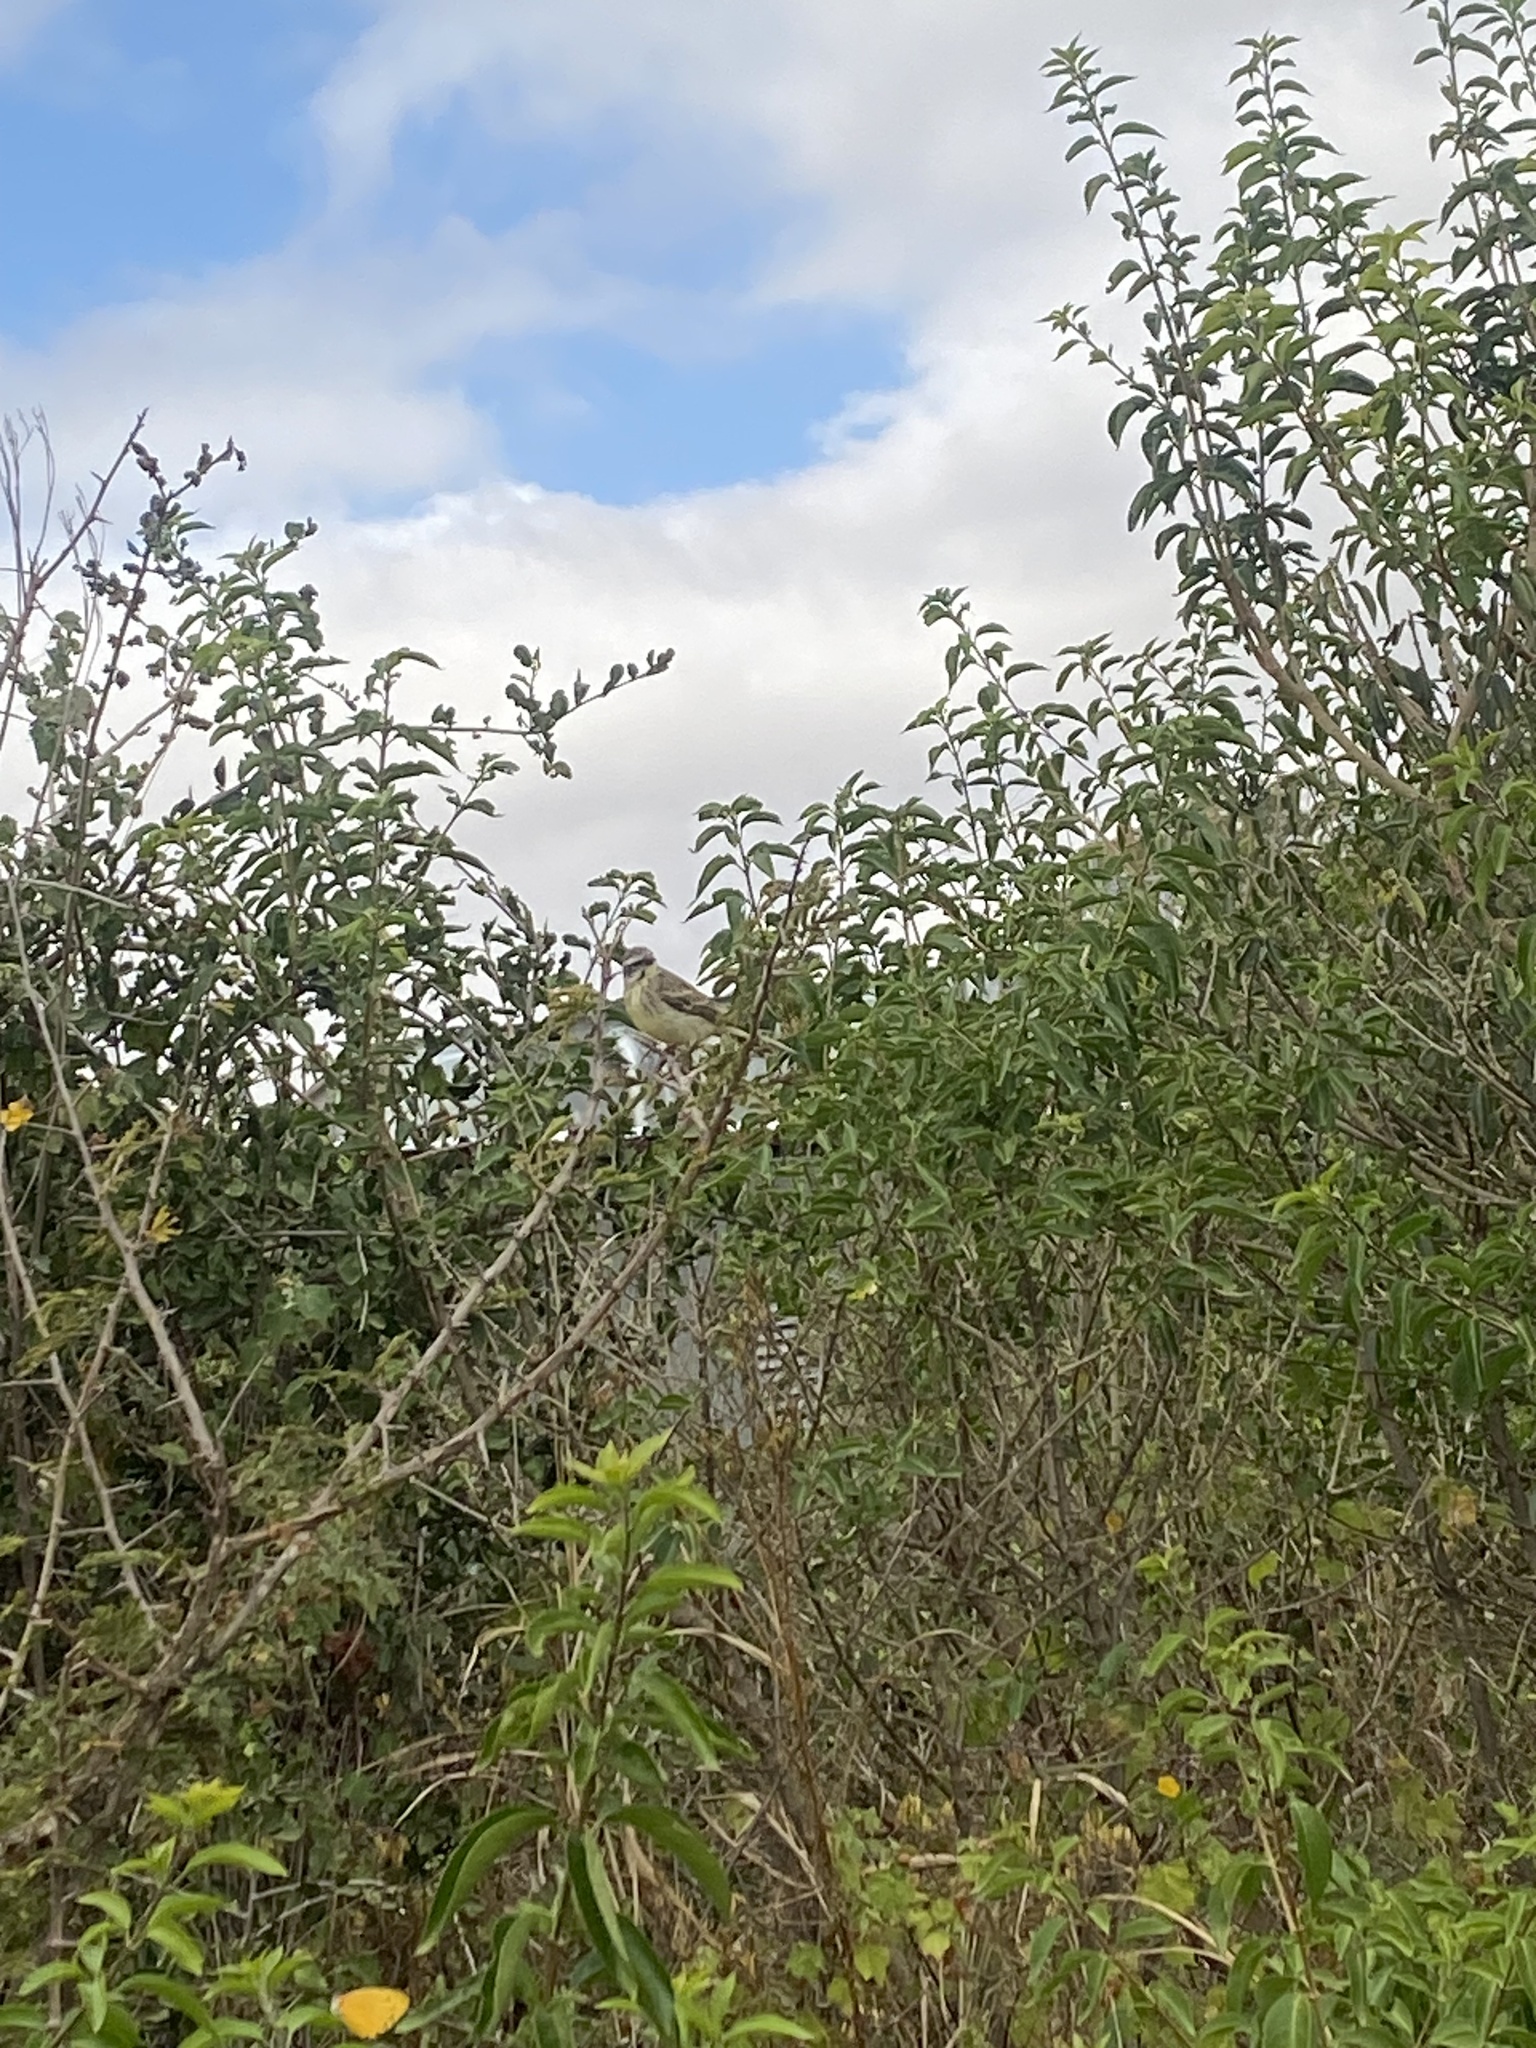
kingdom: Animalia
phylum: Chordata
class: Aves
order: Passeriformes
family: Fringillidae
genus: Crithagra
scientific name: Crithagra mozambica
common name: Yellow-fronted canary
